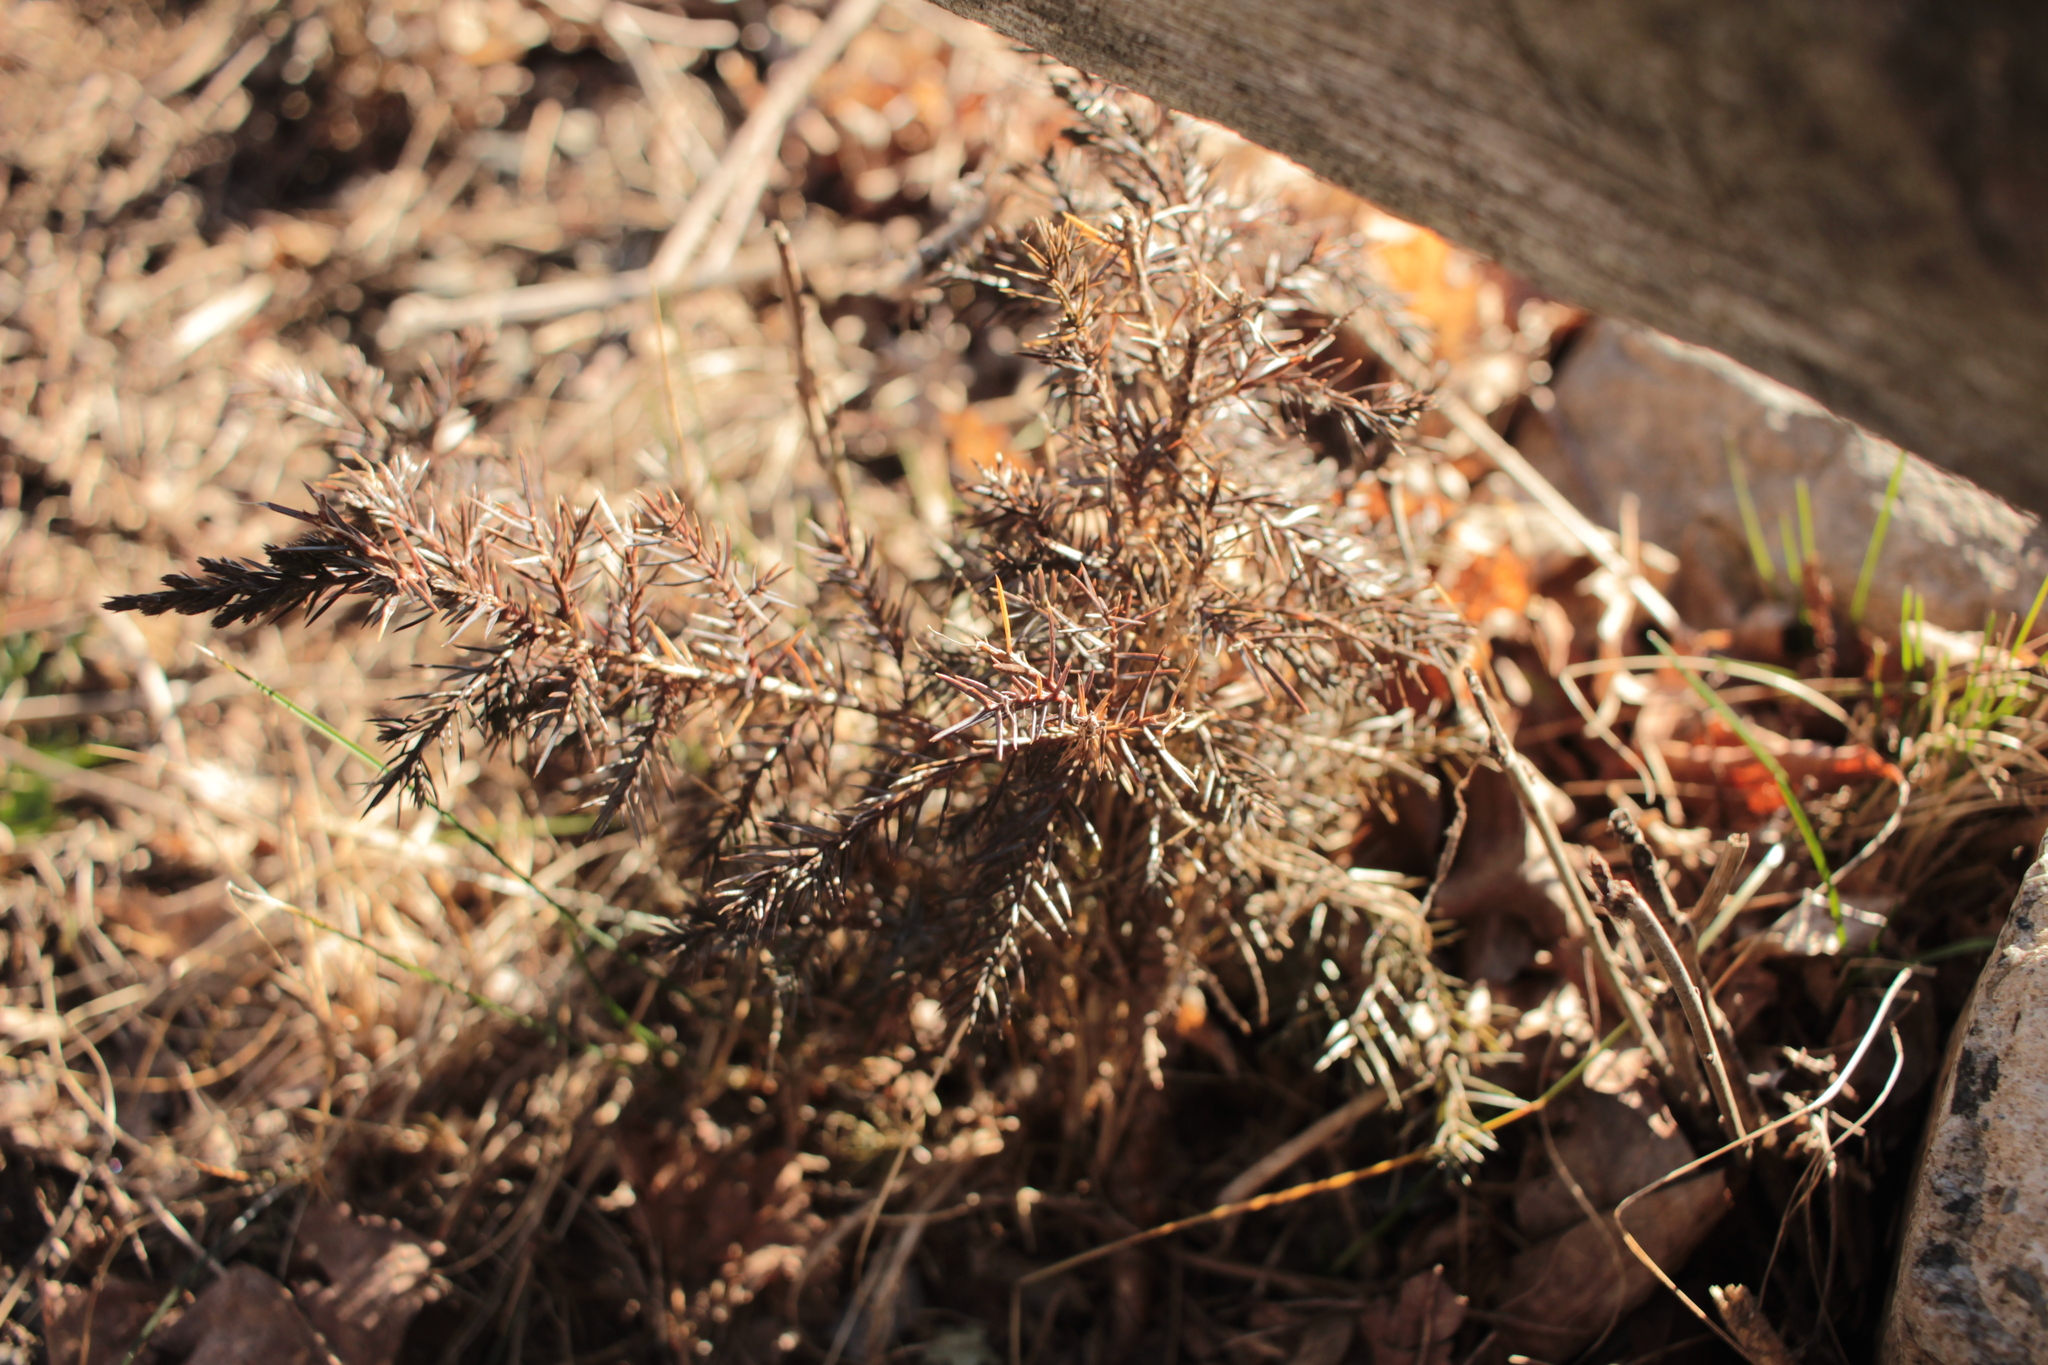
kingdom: Plantae
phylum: Tracheophyta
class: Pinopsida
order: Pinales
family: Cupressaceae
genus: Juniperus
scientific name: Juniperus virginiana
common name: Red juniper
